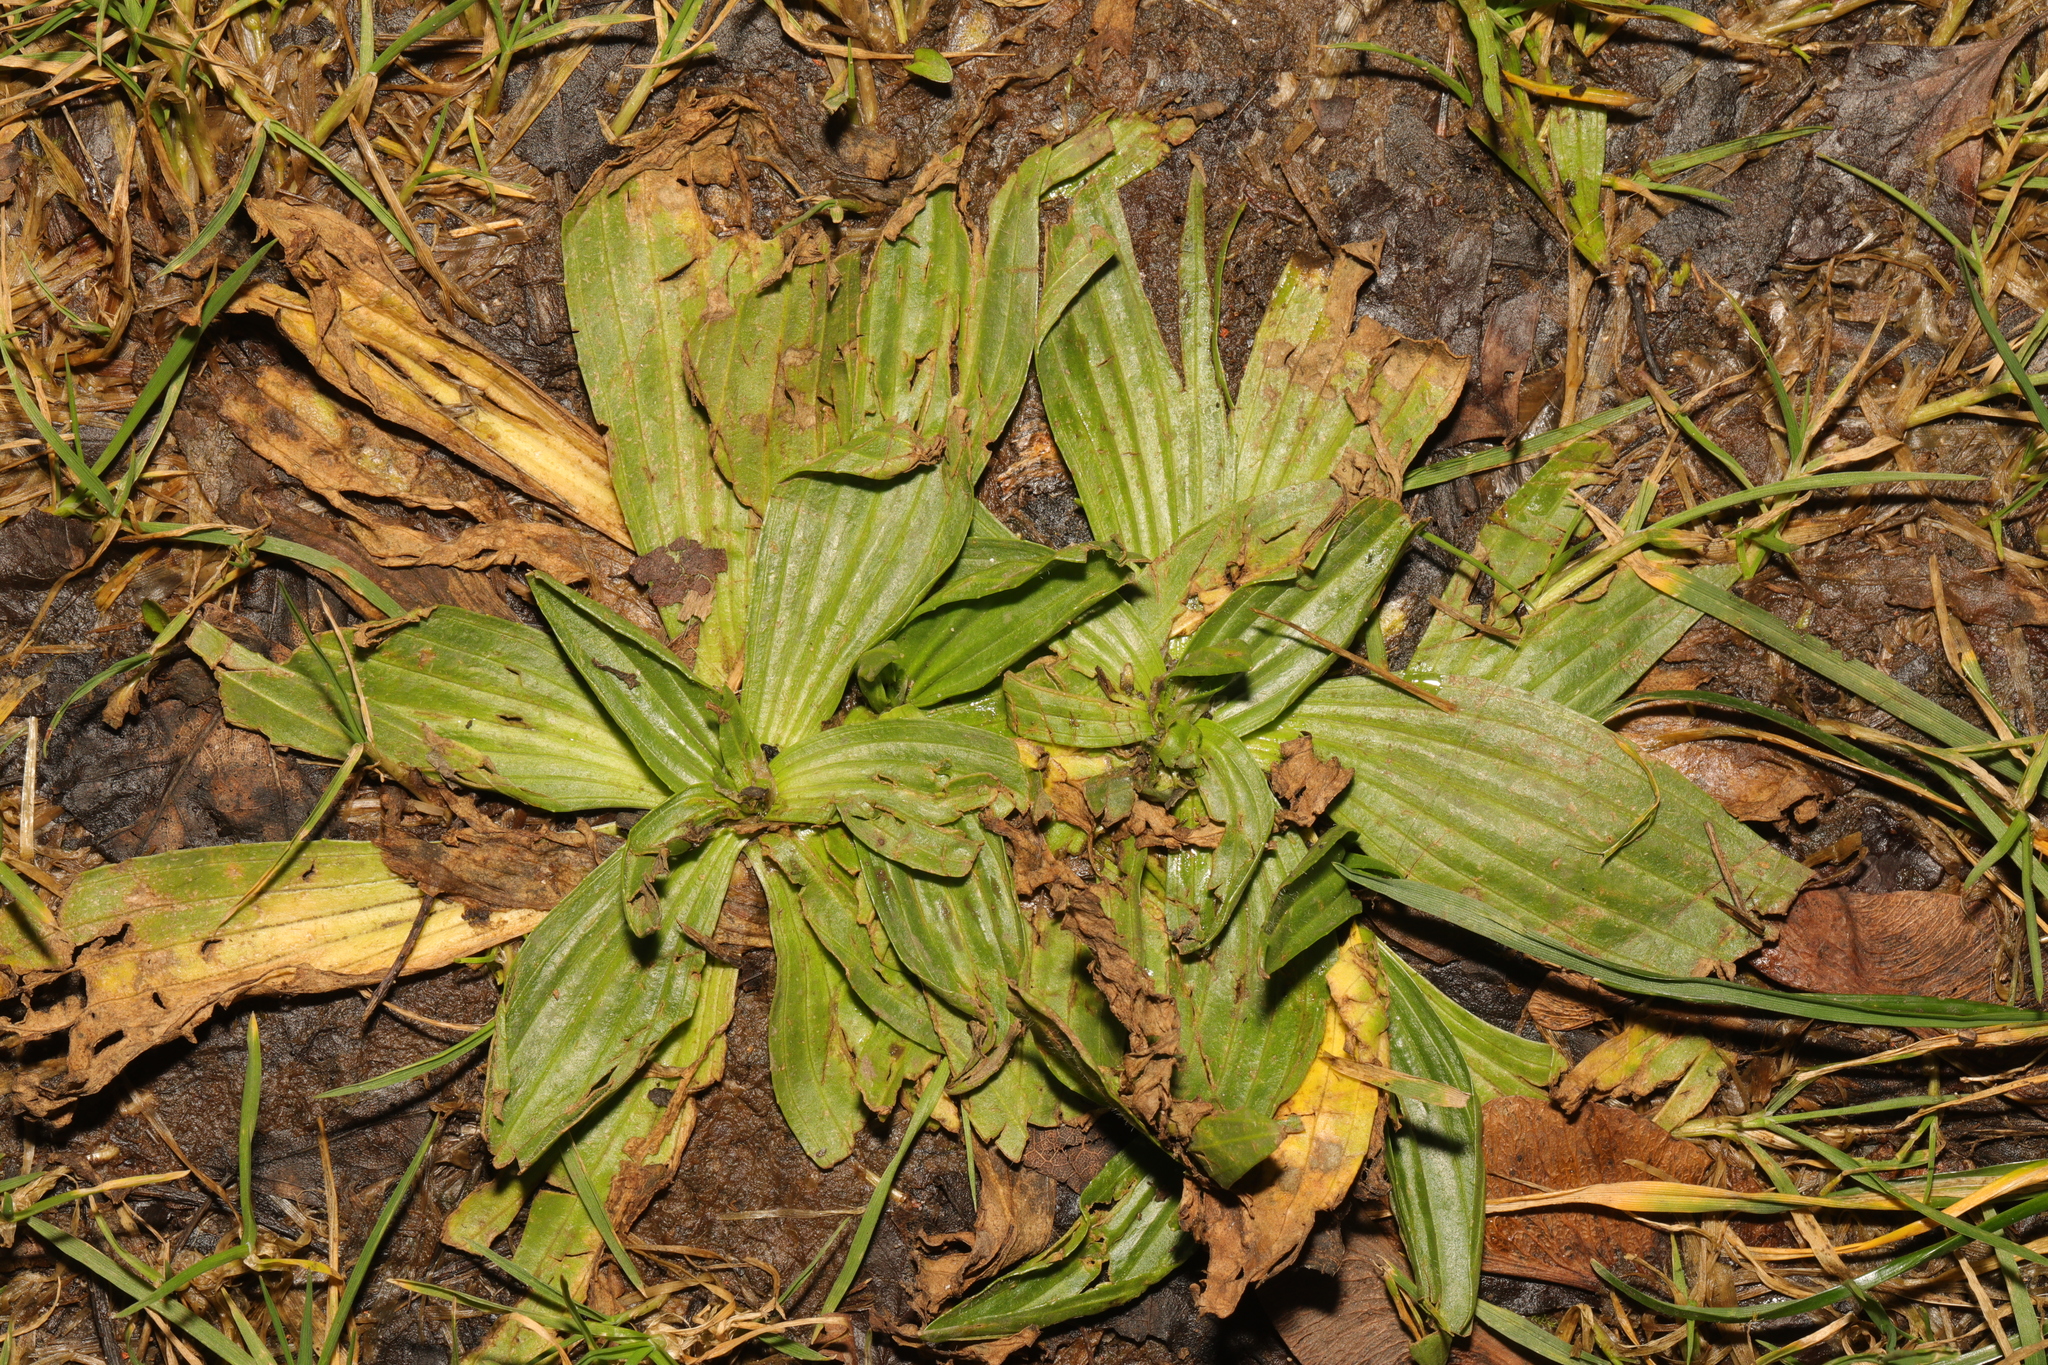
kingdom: Plantae
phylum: Tracheophyta
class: Magnoliopsida
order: Lamiales
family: Plantaginaceae
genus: Plantago
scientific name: Plantago lanceolata
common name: Ribwort plantain
